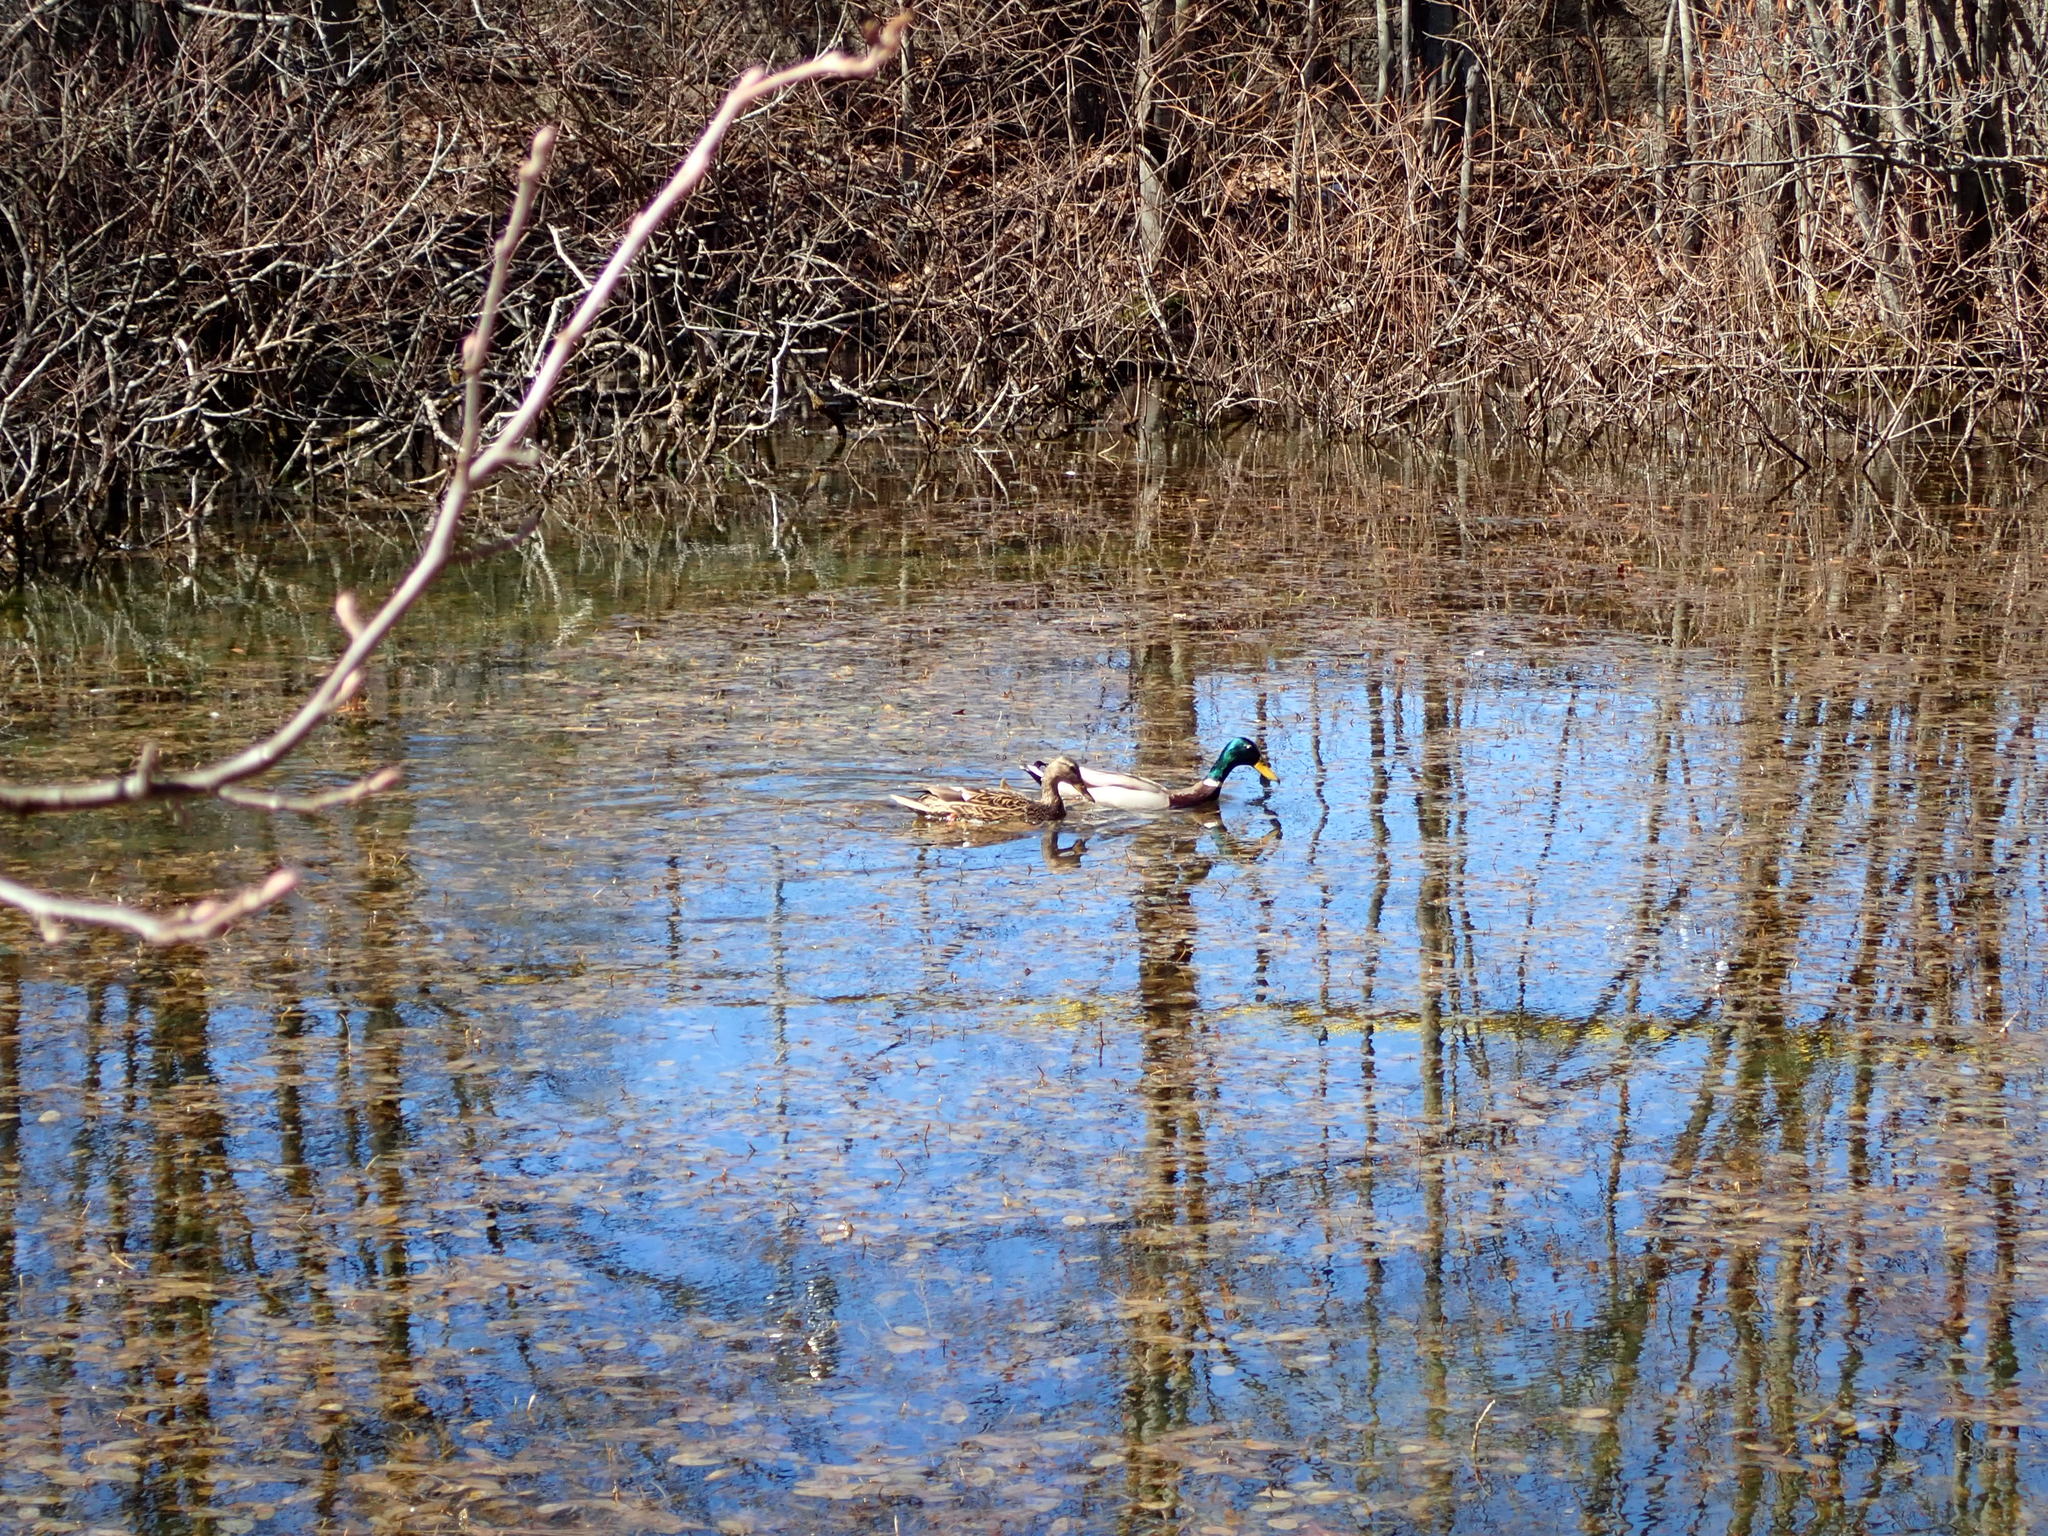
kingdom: Animalia
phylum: Chordata
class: Aves
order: Anseriformes
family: Anatidae
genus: Anas
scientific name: Anas platyrhynchos
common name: Mallard
